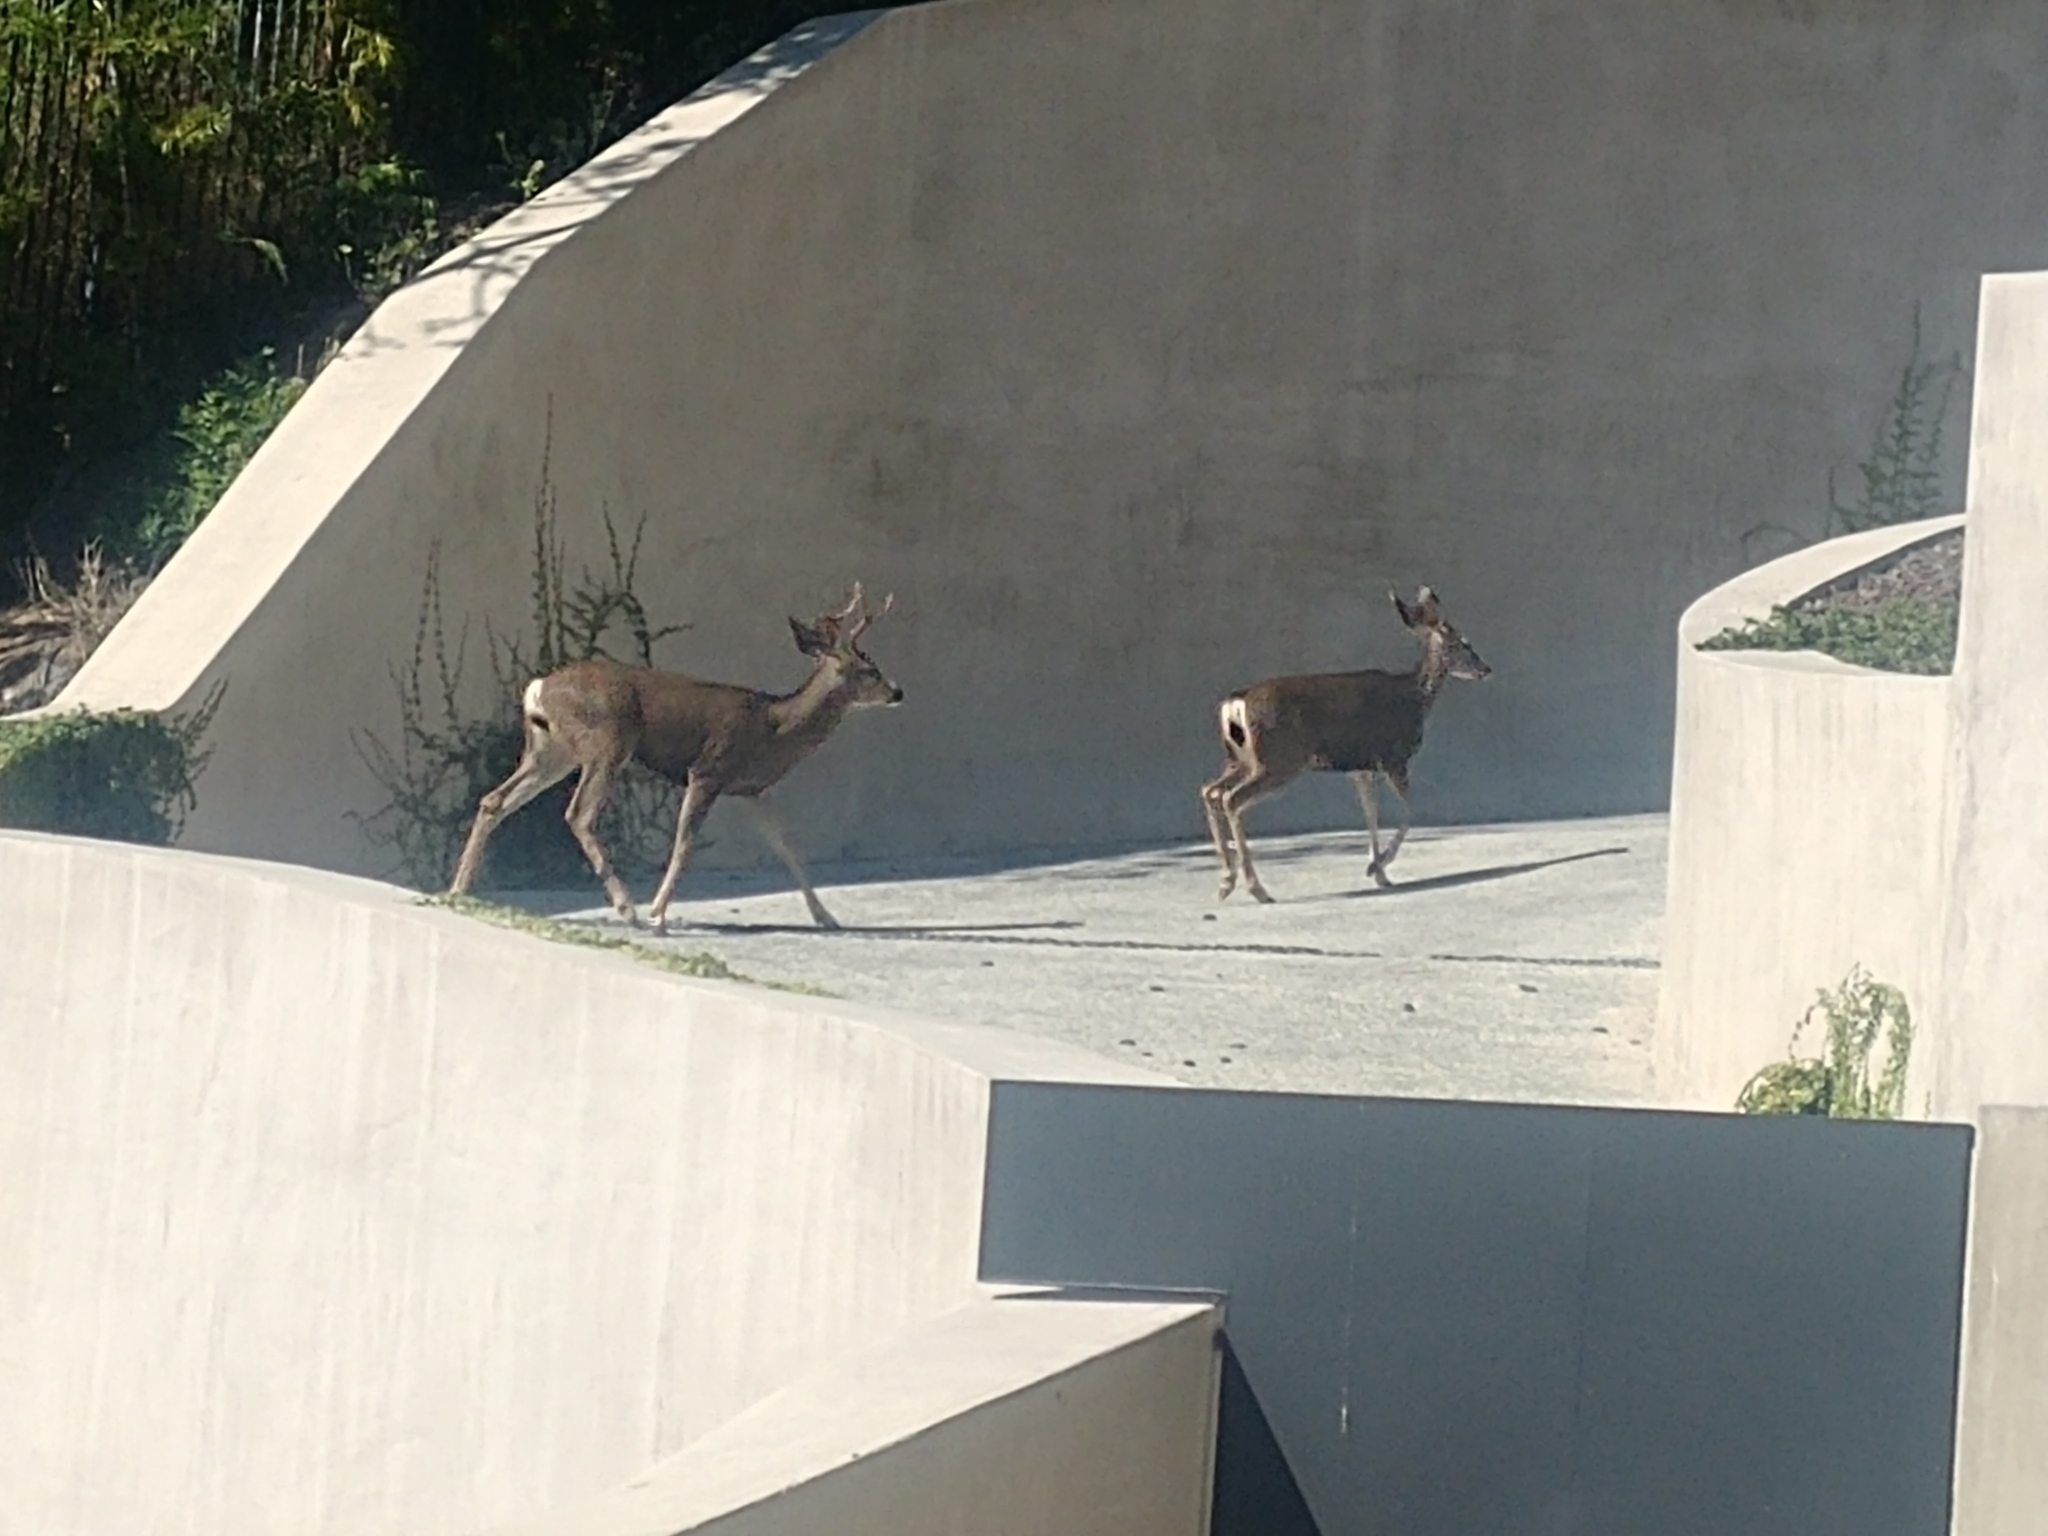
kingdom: Animalia
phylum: Chordata
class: Mammalia
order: Artiodactyla
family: Cervidae
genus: Odocoileus
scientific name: Odocoileus hemionus
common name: Mule deer
